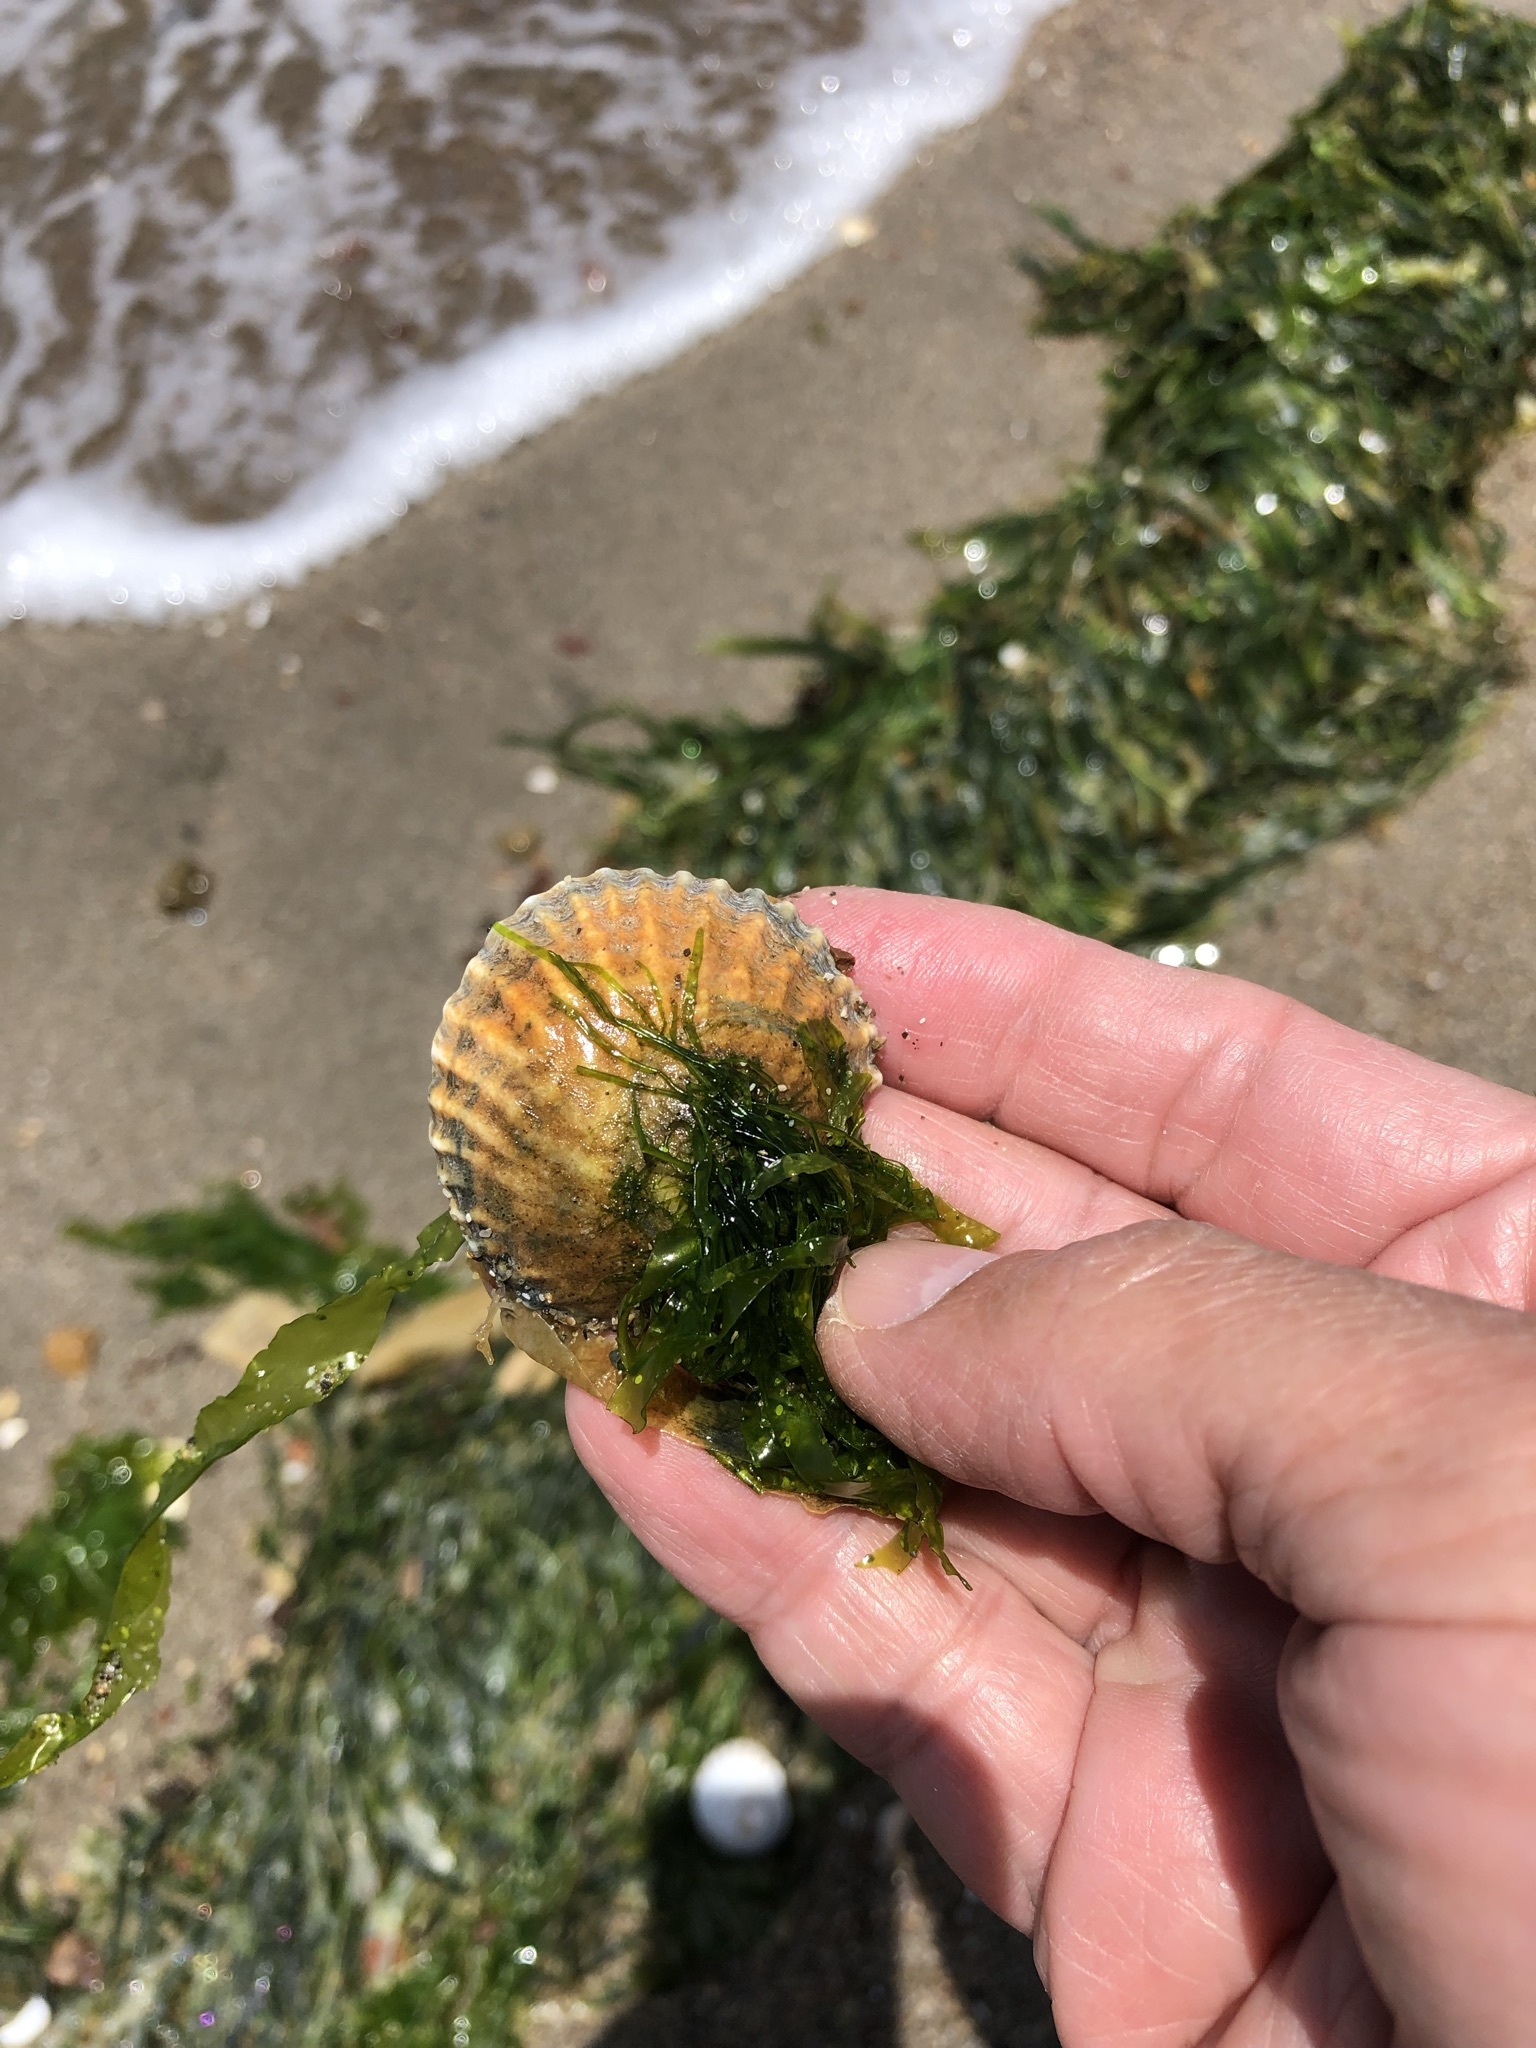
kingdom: Animalia
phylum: Mollusca
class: Gastropoda
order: Littorinimorpha
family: Calyptraeidae
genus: Trochita
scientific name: Trochita trochiformis
